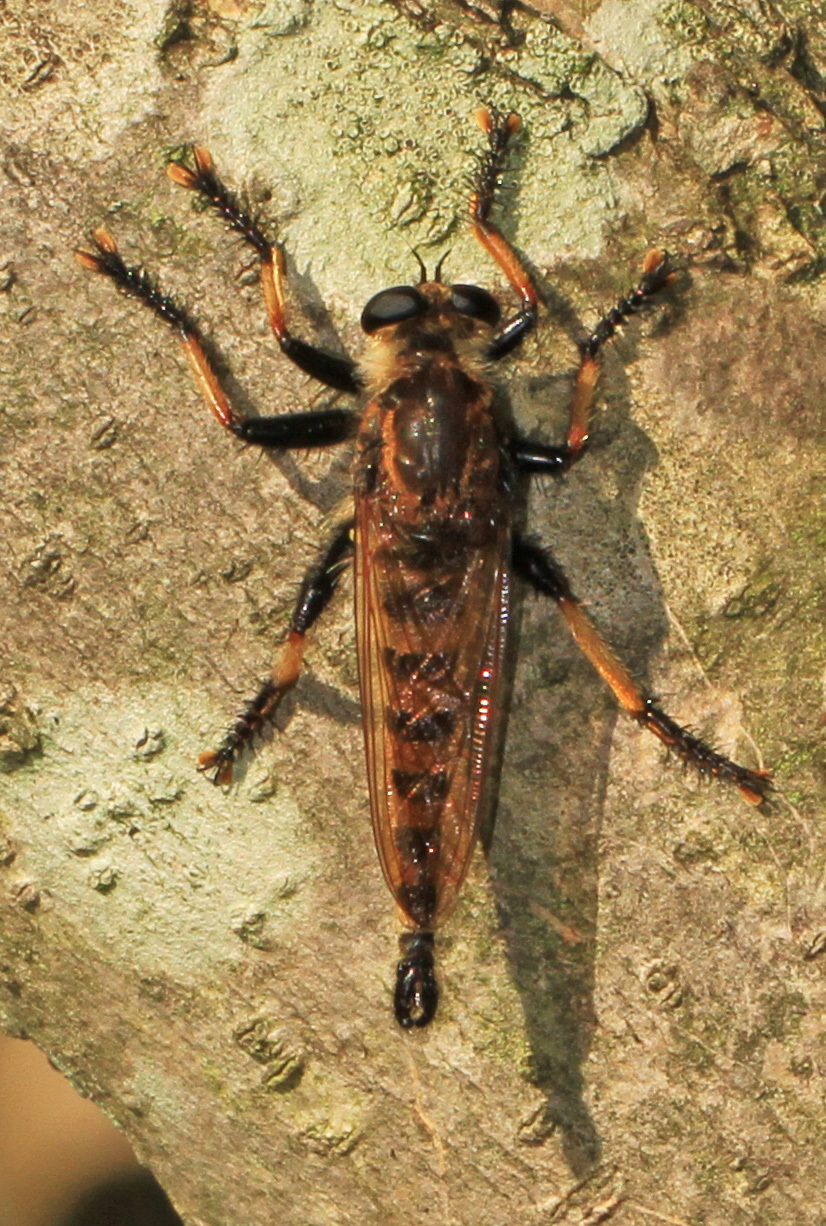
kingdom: Animalia
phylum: Arthropoda
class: Insecta
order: Diptera
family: Asilidae
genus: Promachus
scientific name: Promachus rufipes
